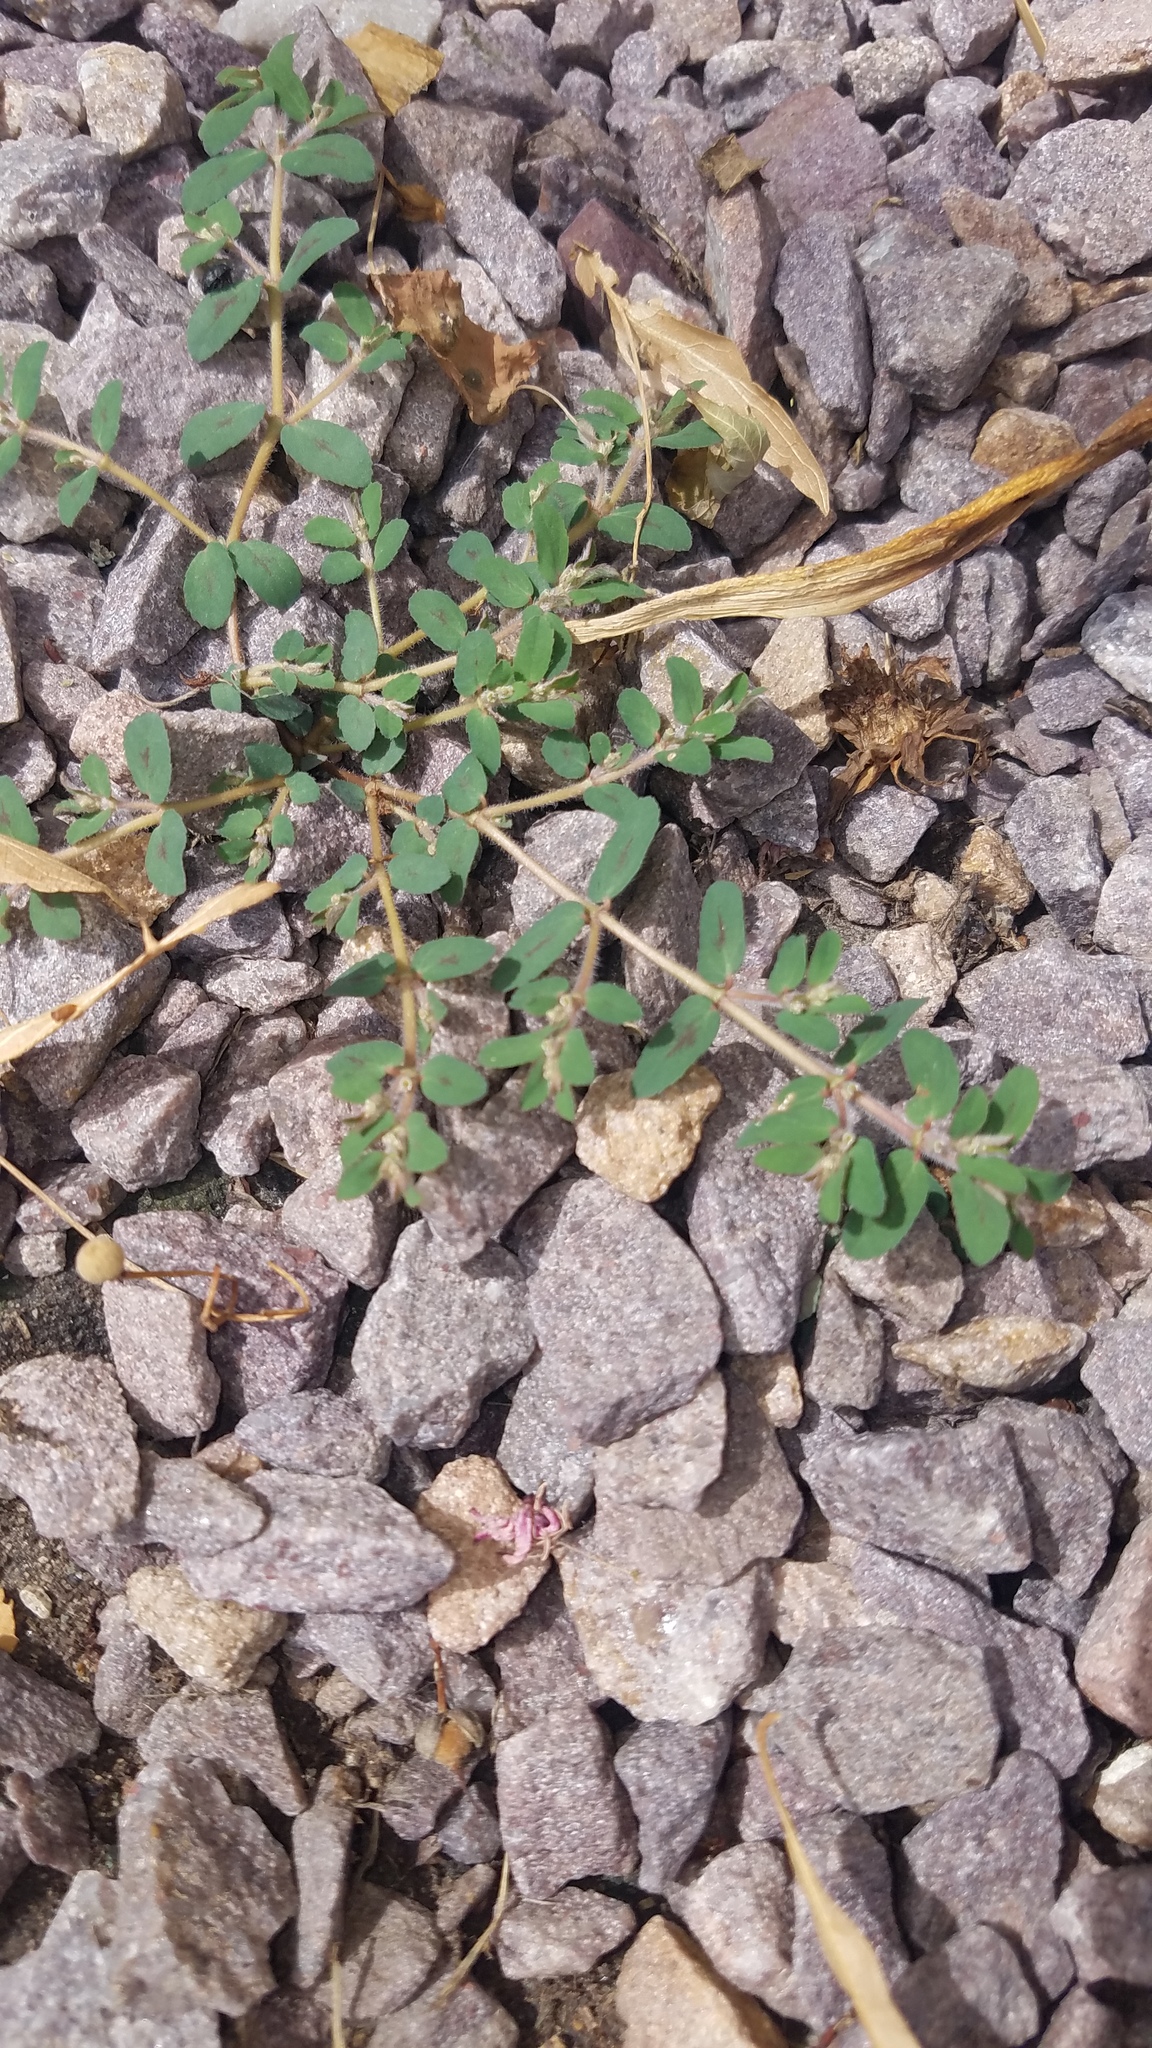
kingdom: Plantae
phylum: Tracheophyta
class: Magnoliopsida
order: Malpighiales
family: Euphorbiaceae
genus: Euphorbia
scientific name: Euphorbia maculata
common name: Spotted spurge
